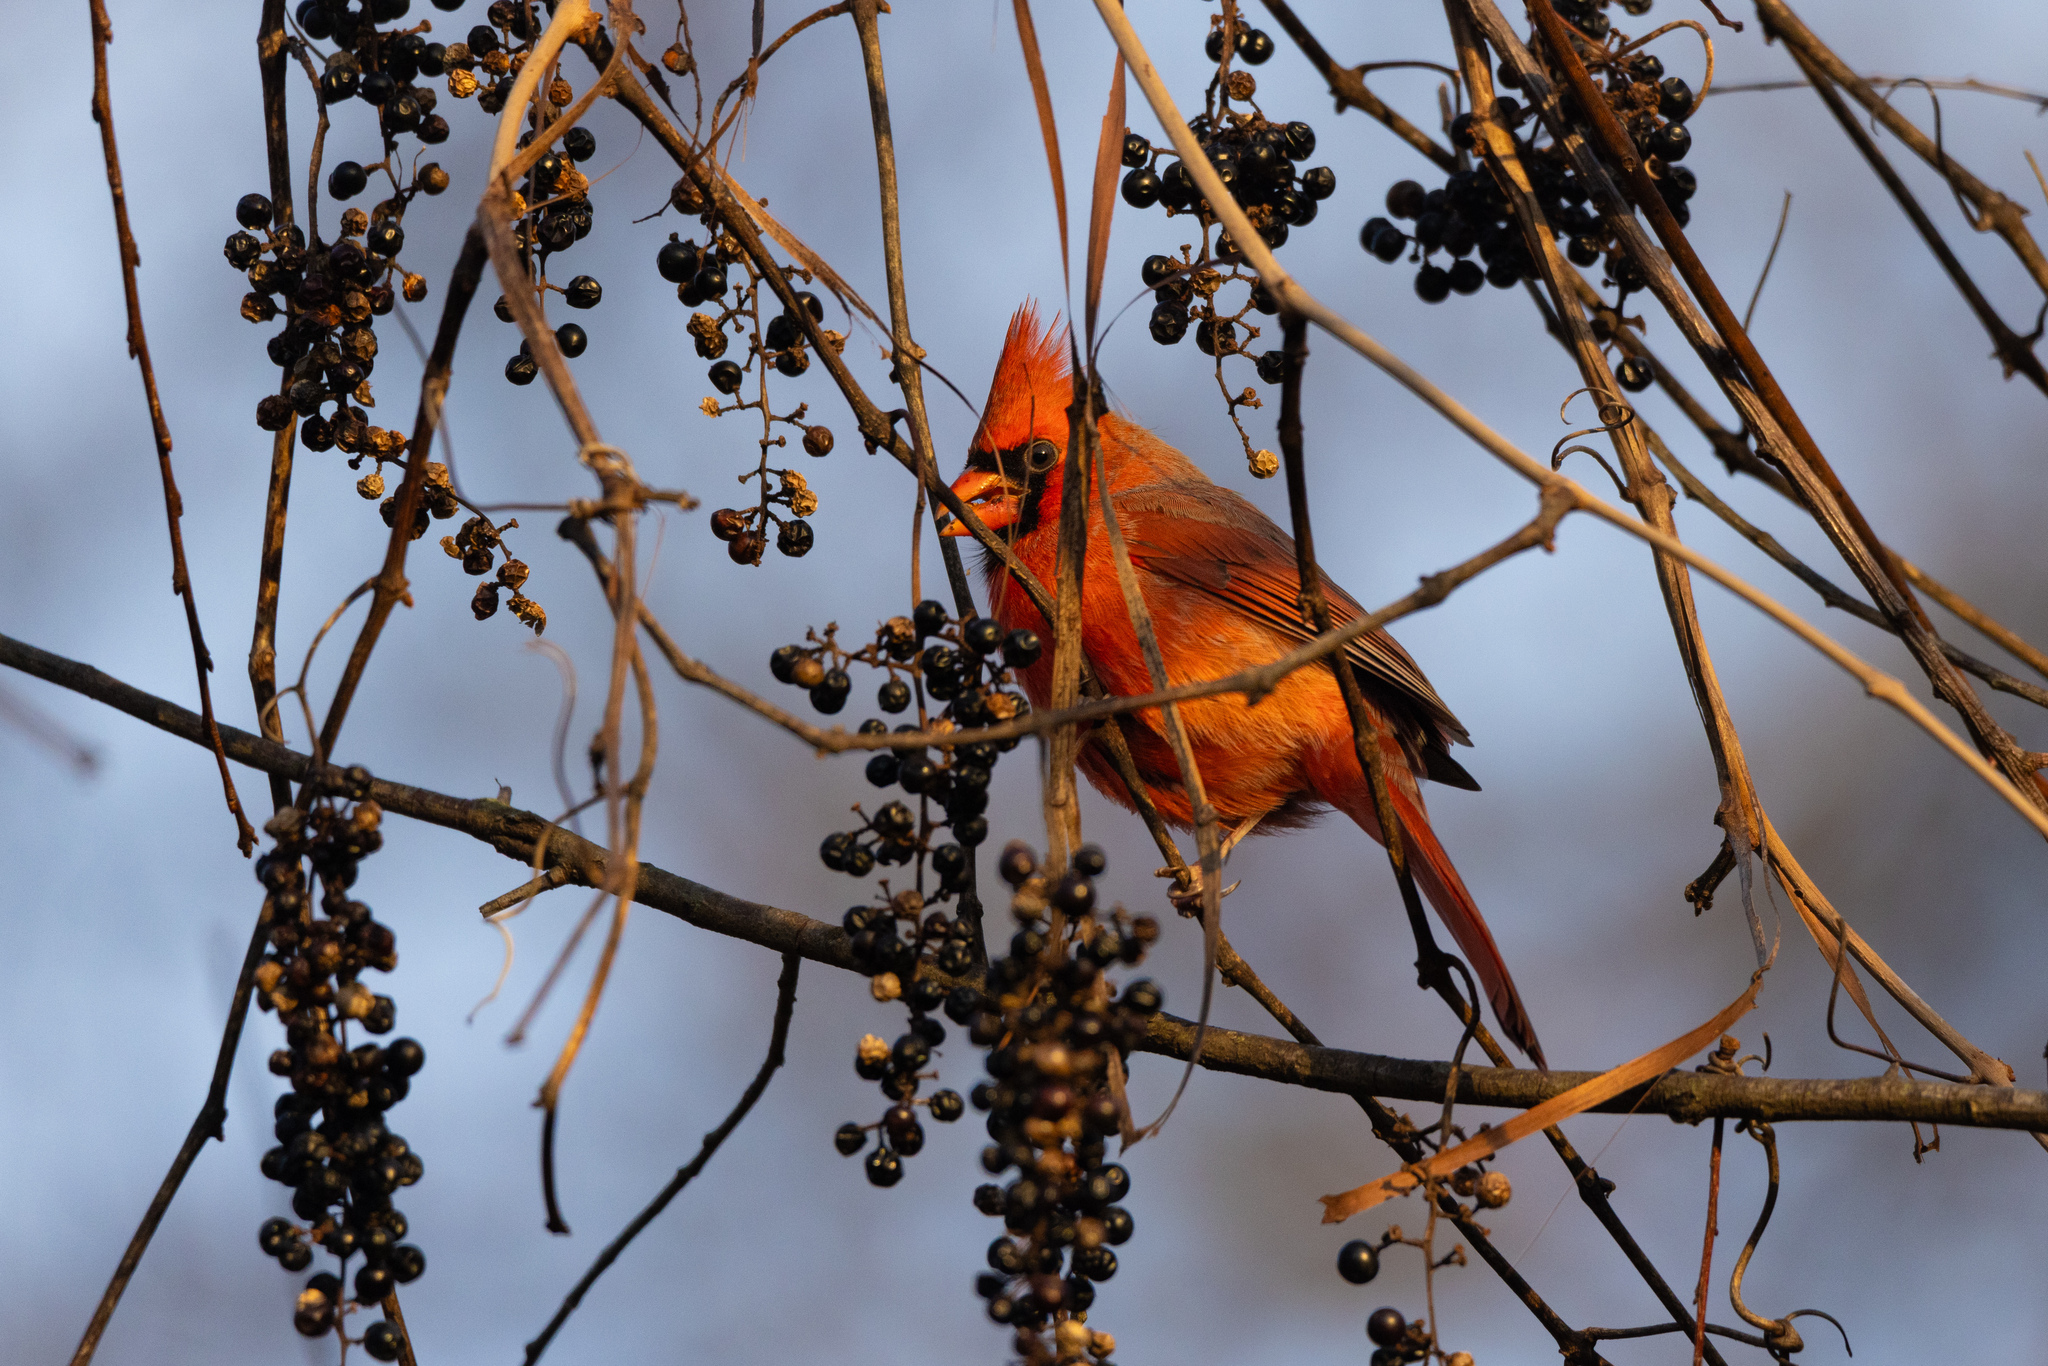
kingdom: Animalia
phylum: Chordata
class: Aves
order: Passeriformes
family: Cardinalidae
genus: Cardinalis
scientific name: Cardinalis cardinalis
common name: Northern cardinal
